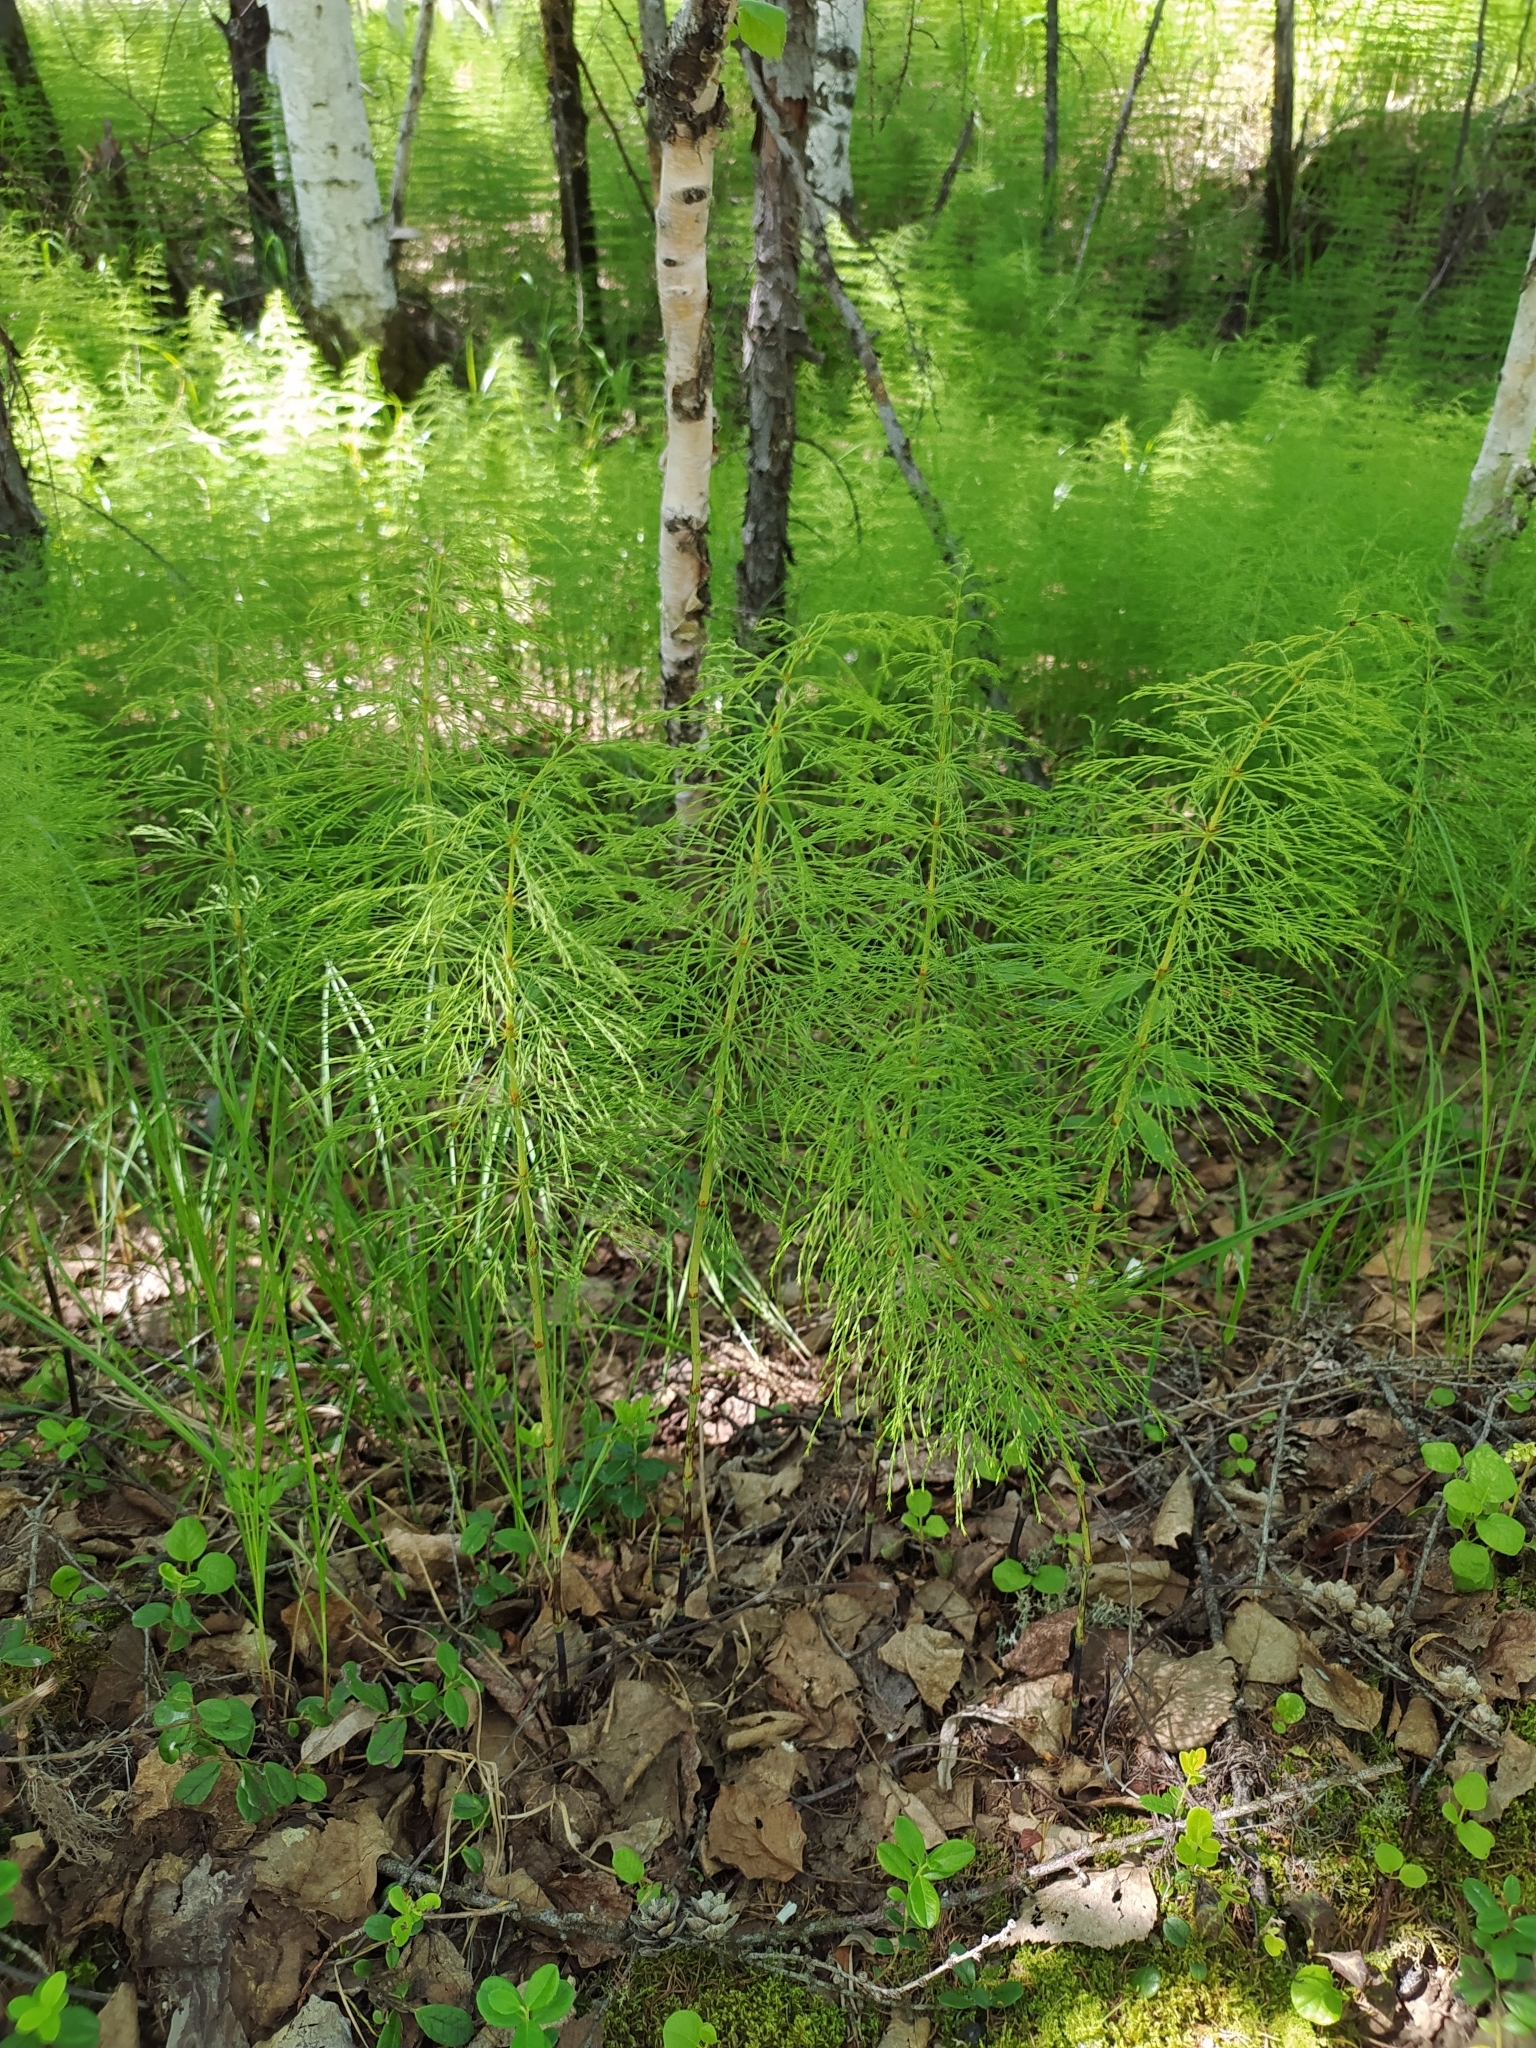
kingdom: Plantae
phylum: Tracheophyta
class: Polypodiopsida
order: Equisetales
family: Equisetaceae
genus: Equisetum
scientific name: Equisetum sylvaticum
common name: Wood horsetail
